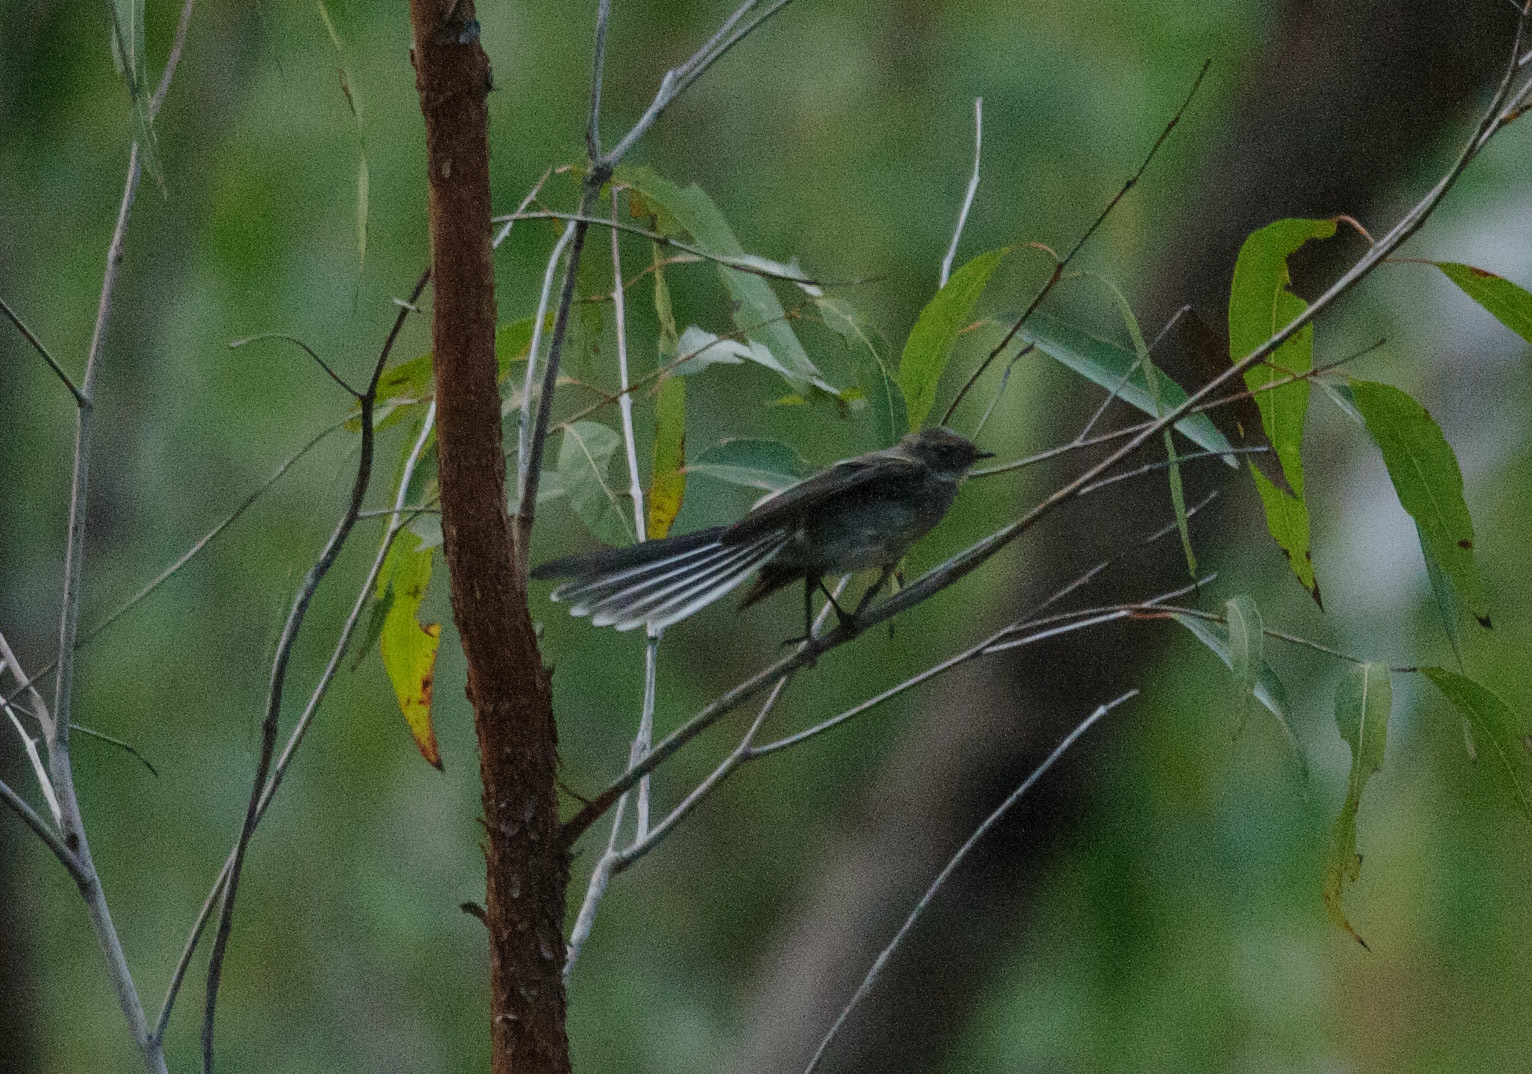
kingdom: Animalia
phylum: Chordata
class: Aves
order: Passeriformes
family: Rhipiduridae
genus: Rhipidura
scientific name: Rhipidura albiscapa
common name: Grey fantail
